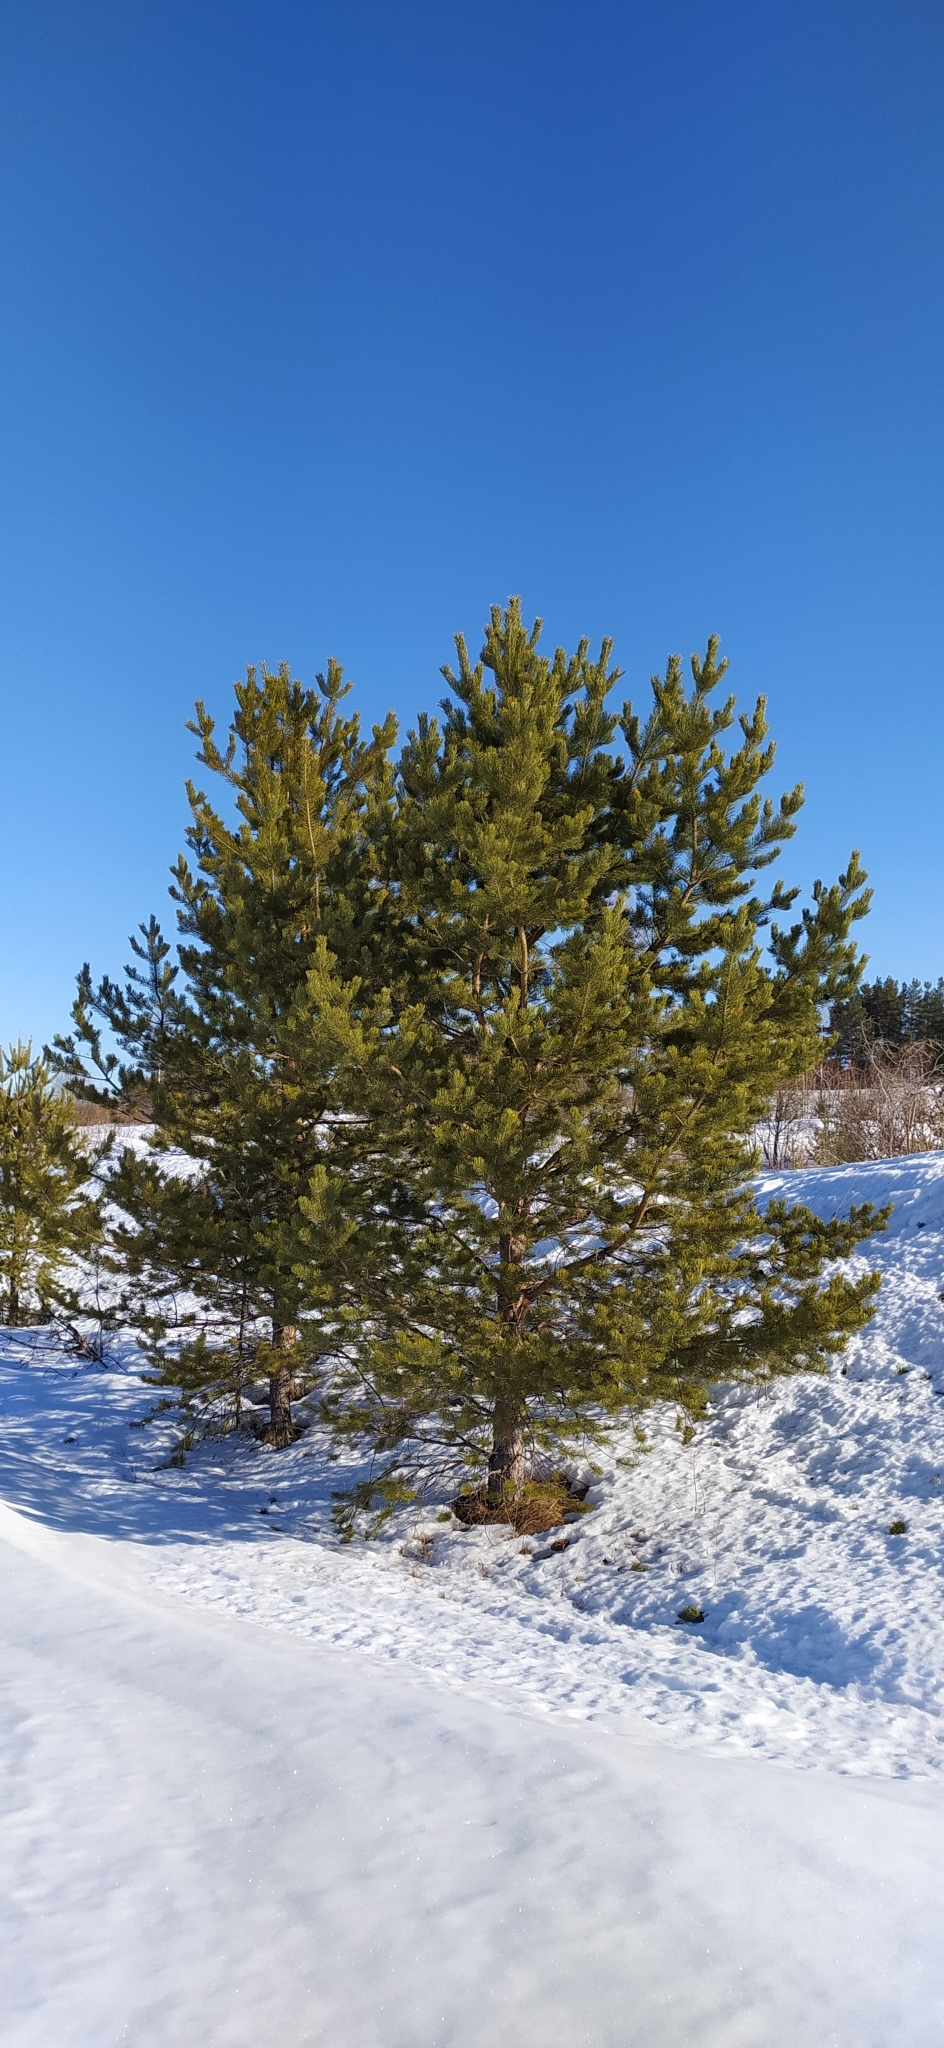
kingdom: Plantae
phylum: Tracheophyta
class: Pinopsida
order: Pinales
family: Pinaceae
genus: Pinus
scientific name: Pinus sylvestris
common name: Scots pine
